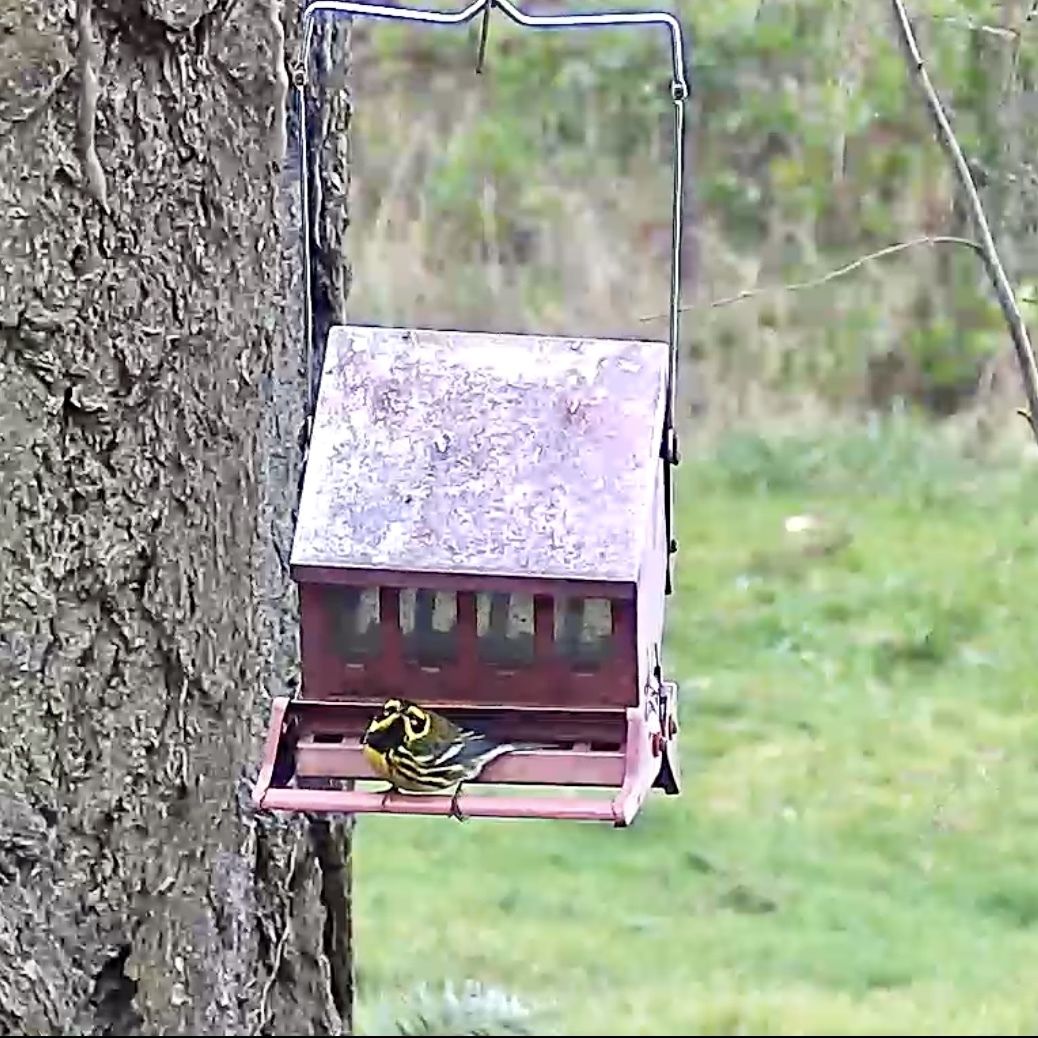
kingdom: Animalia
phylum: Chordata
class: Aves
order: Passeriformes
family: Parulidae
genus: Setophaga
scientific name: Setophaga townsendi
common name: Townsend's warbler
